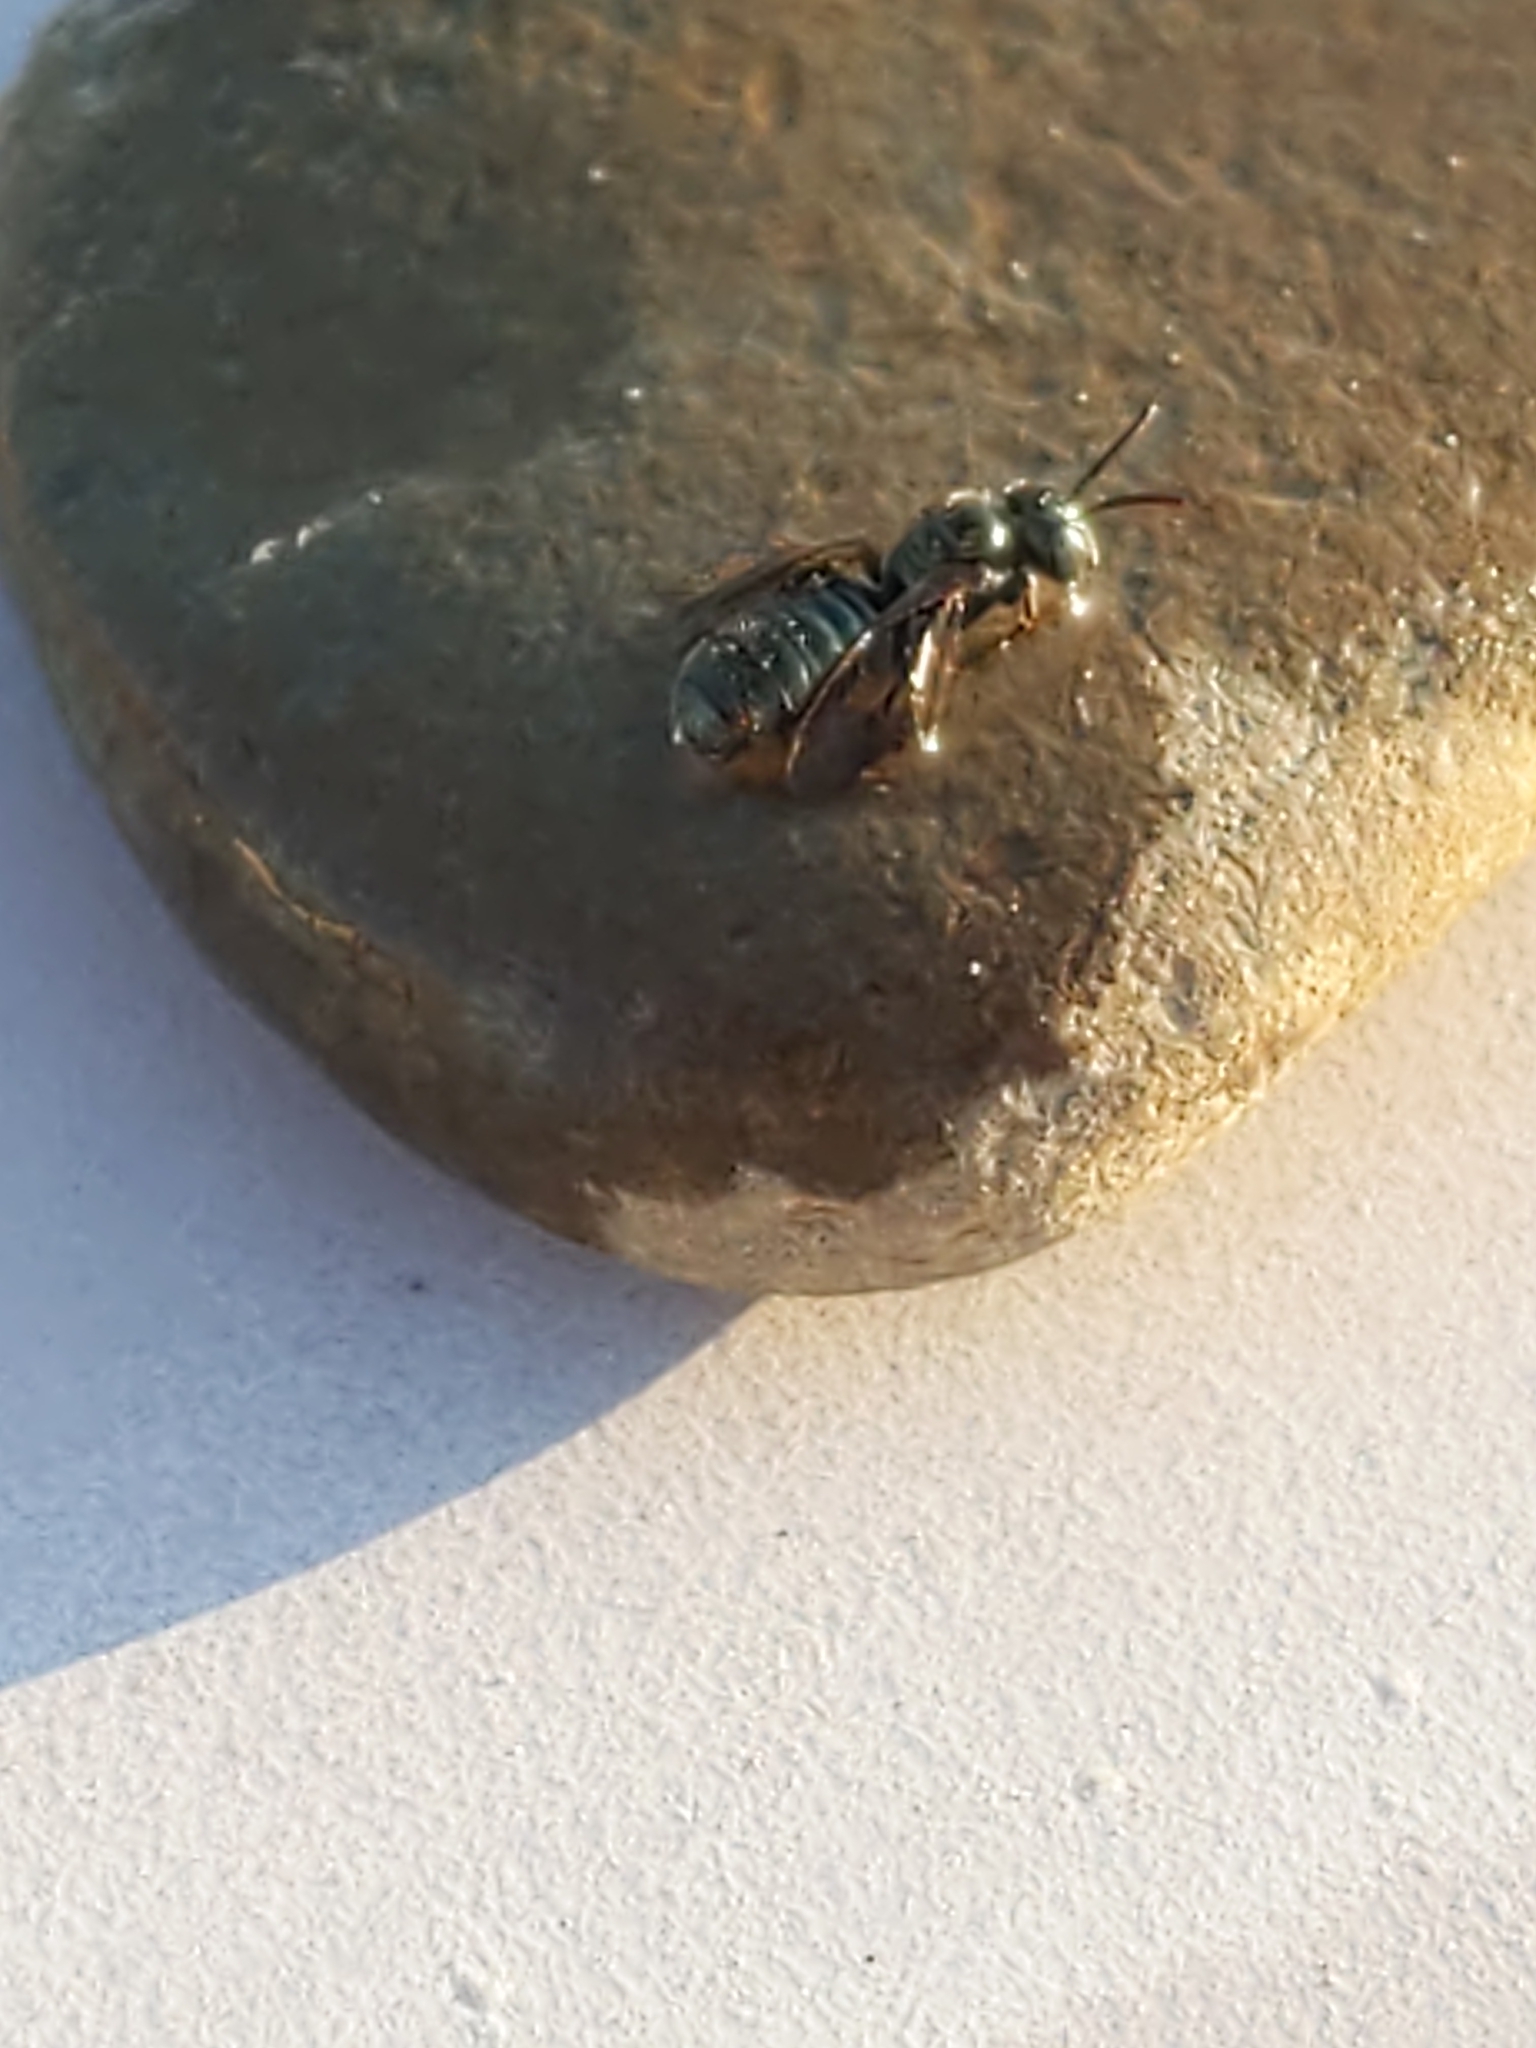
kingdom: Animalia
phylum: Arthropoda
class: Insecta
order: Hymenoptera
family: Apidae
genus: Zadontomerus
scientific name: Zadontomerus
